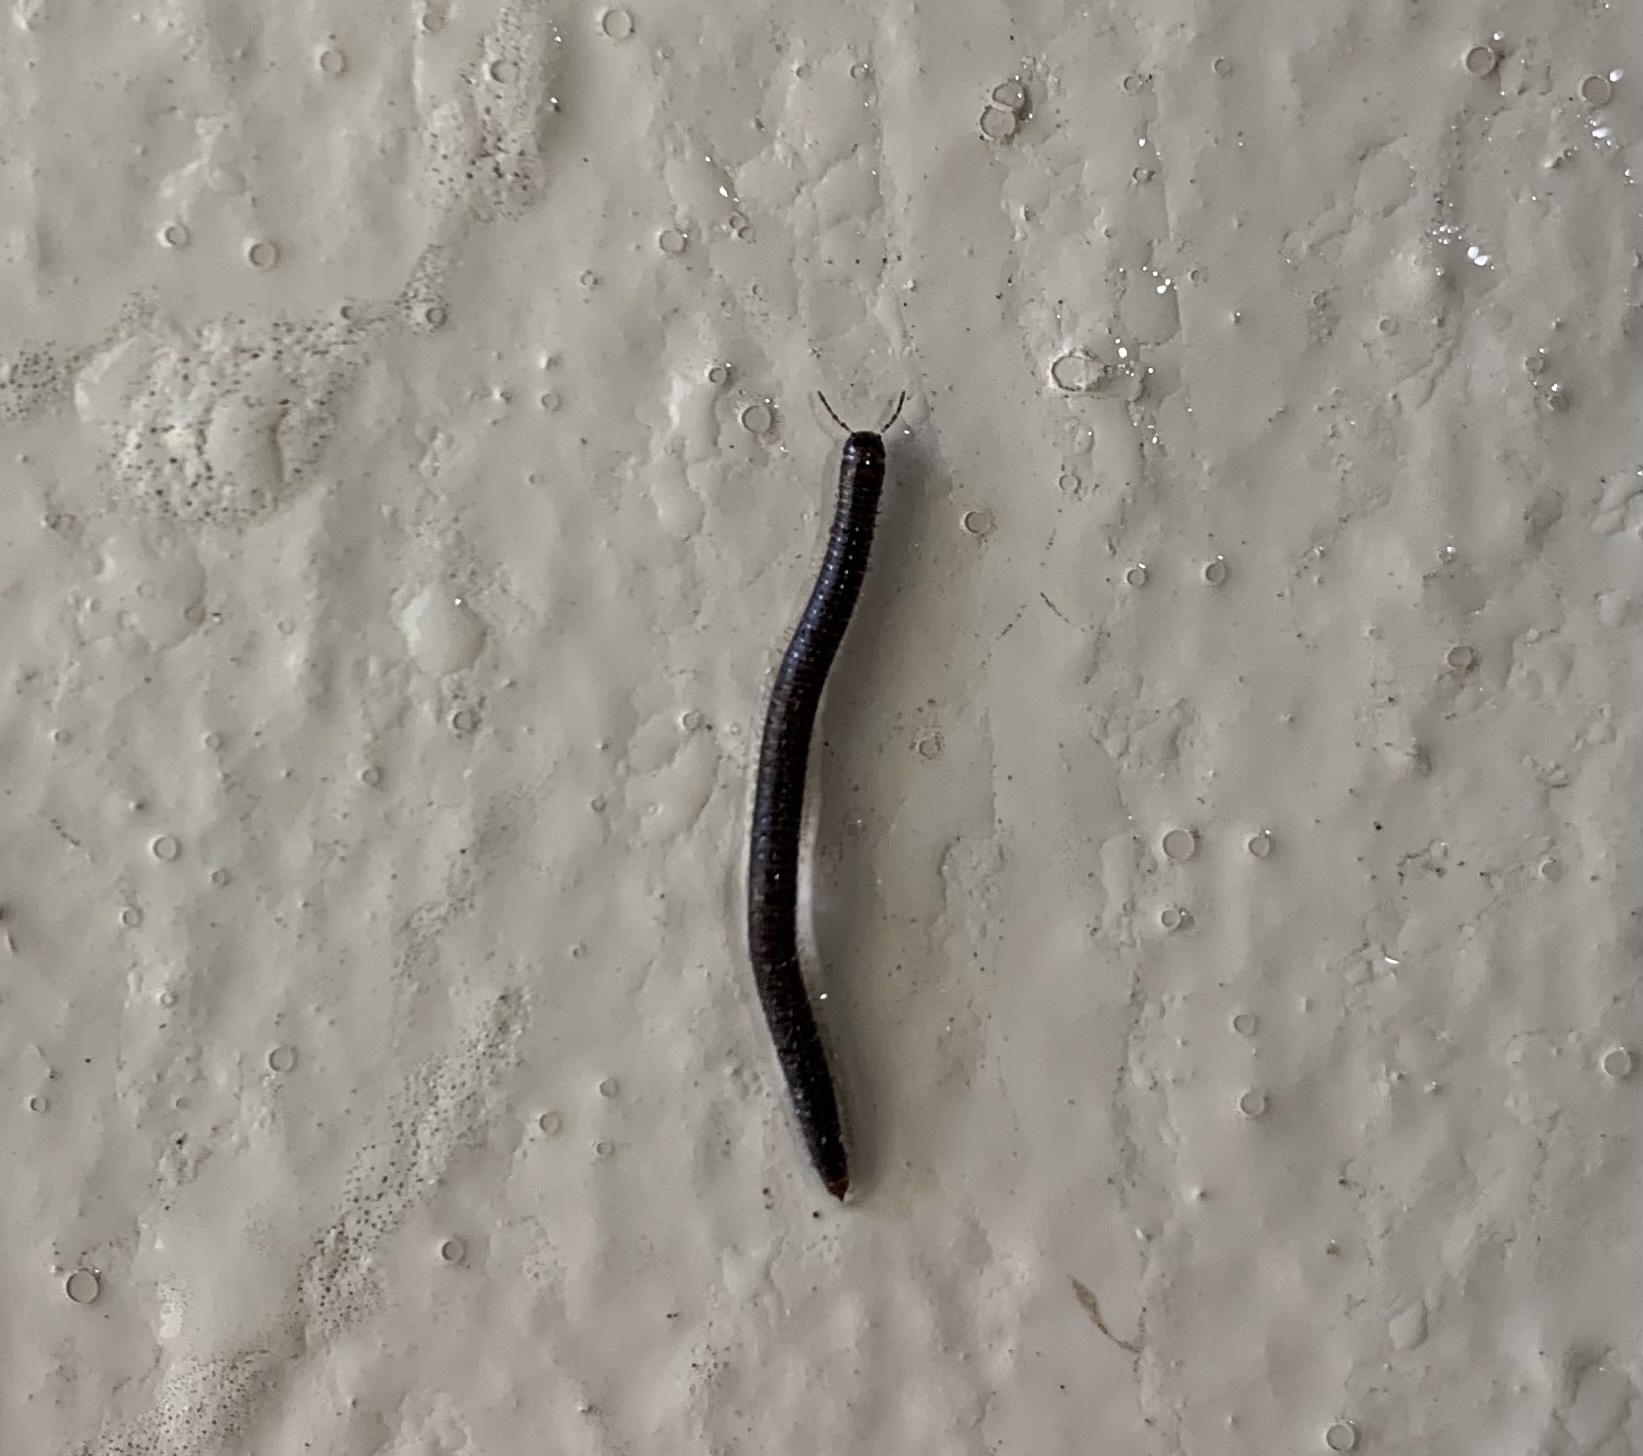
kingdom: Animalia
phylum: Arthropoda
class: Diplopoda
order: Julida
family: Julidae
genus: Ophyiulus
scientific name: Ophyiulus pilosus
